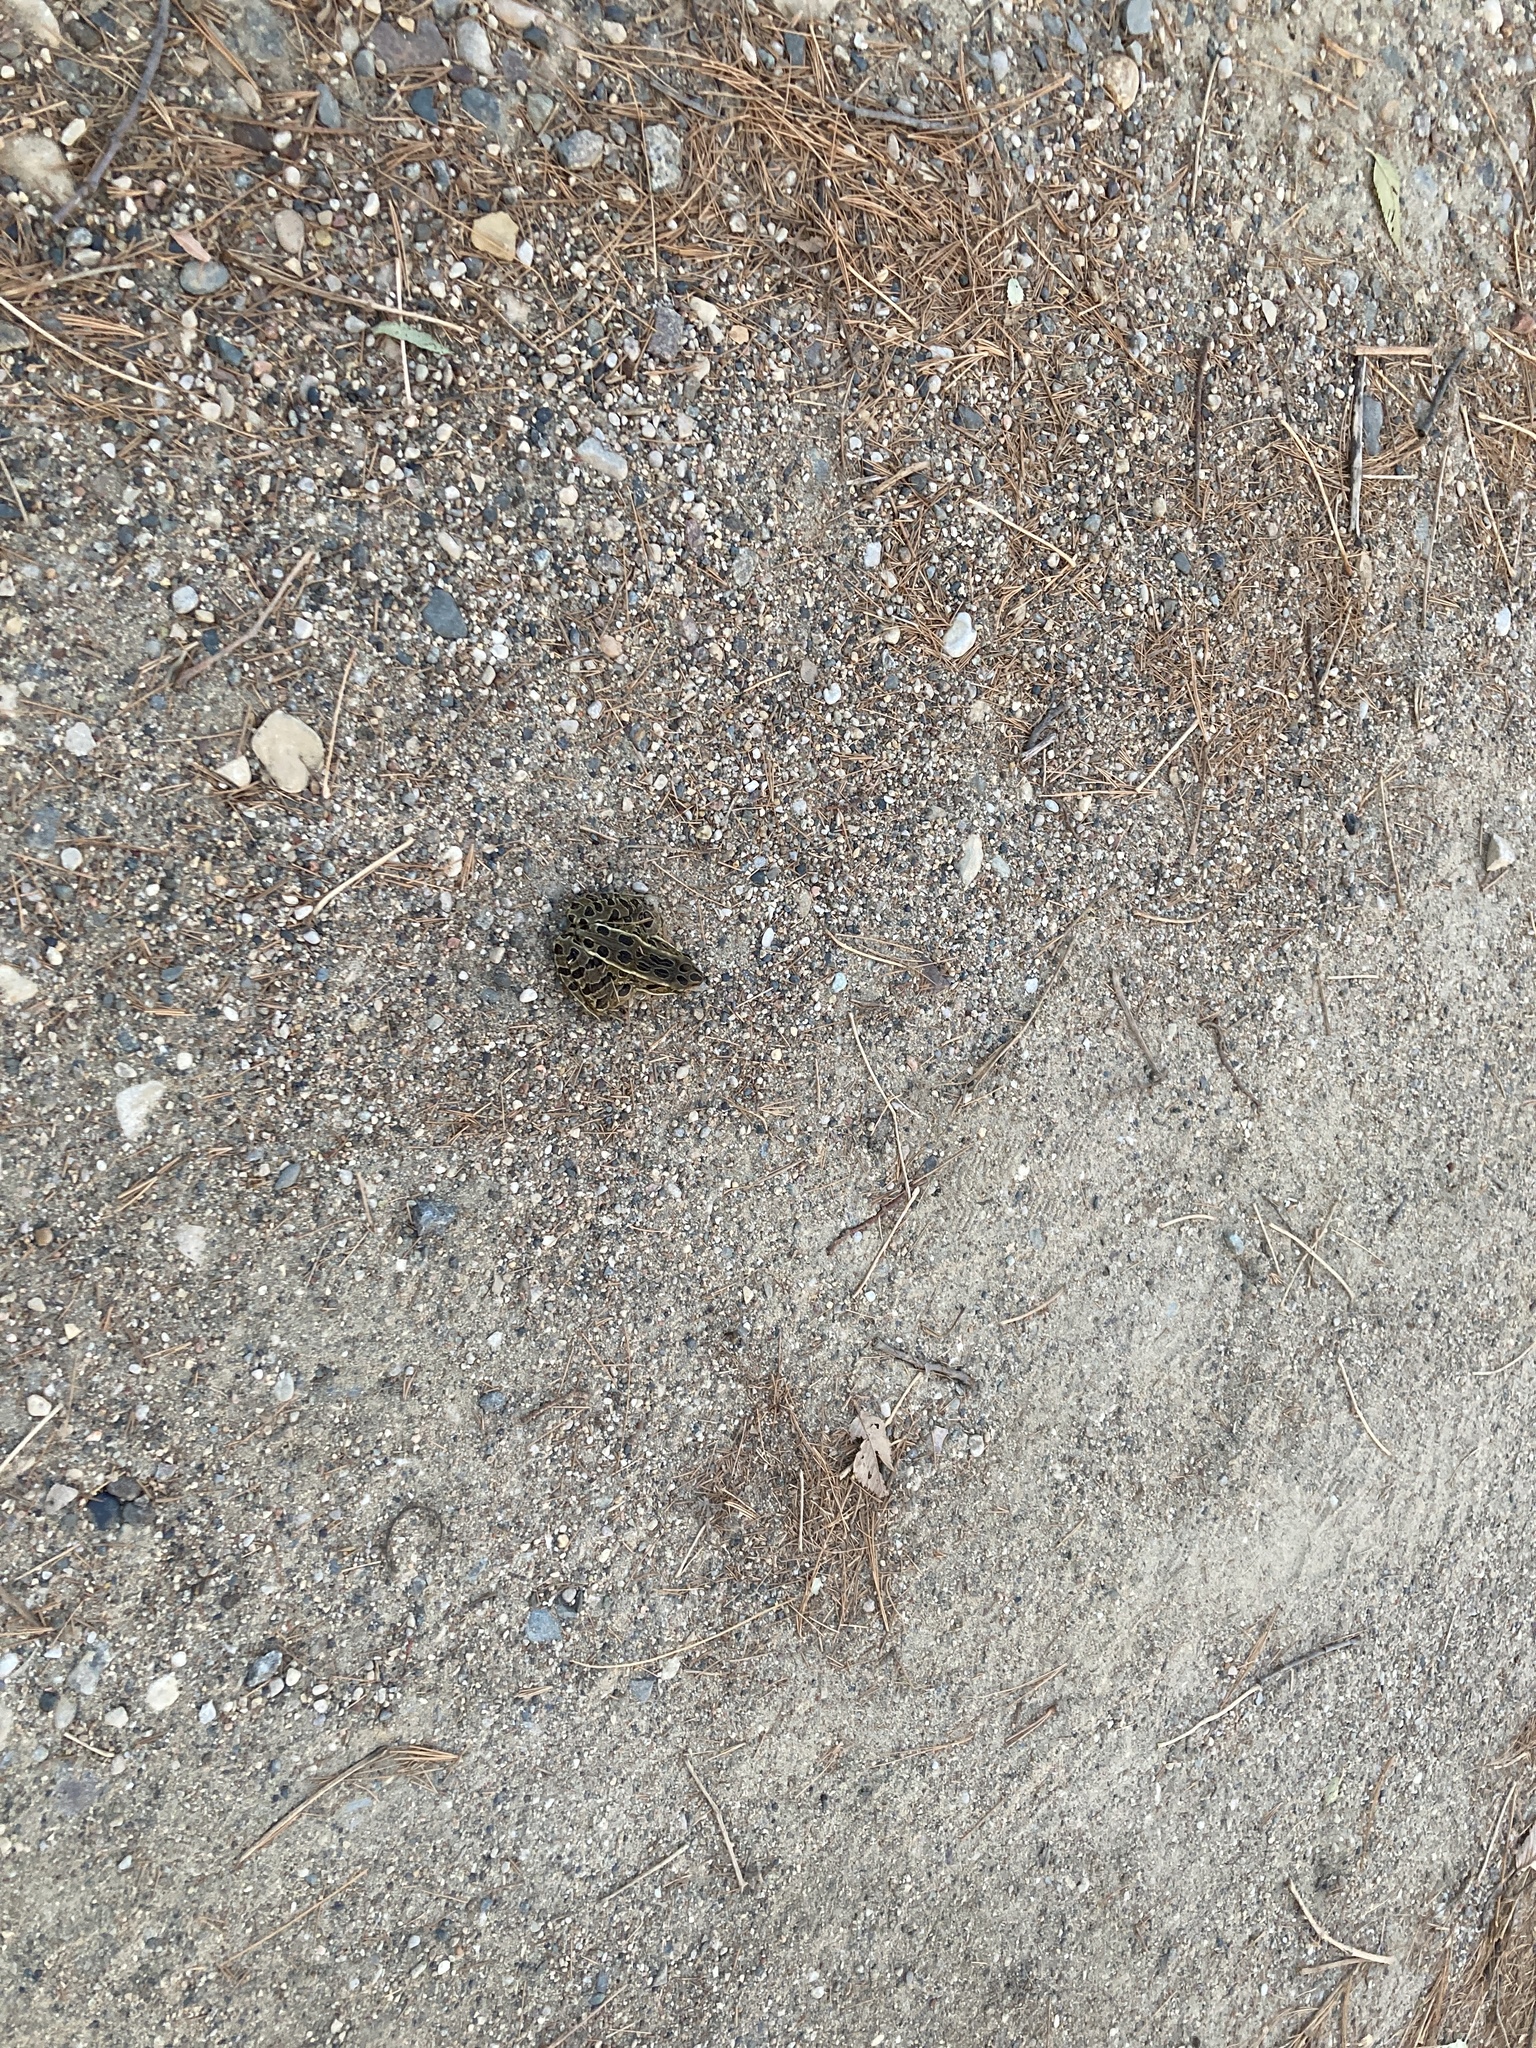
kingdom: Animalia
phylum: Chordata
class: Amphibia
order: Anura
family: Ranidae
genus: Lithobates
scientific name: Lithobates pipiens
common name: Northern leopard frog
